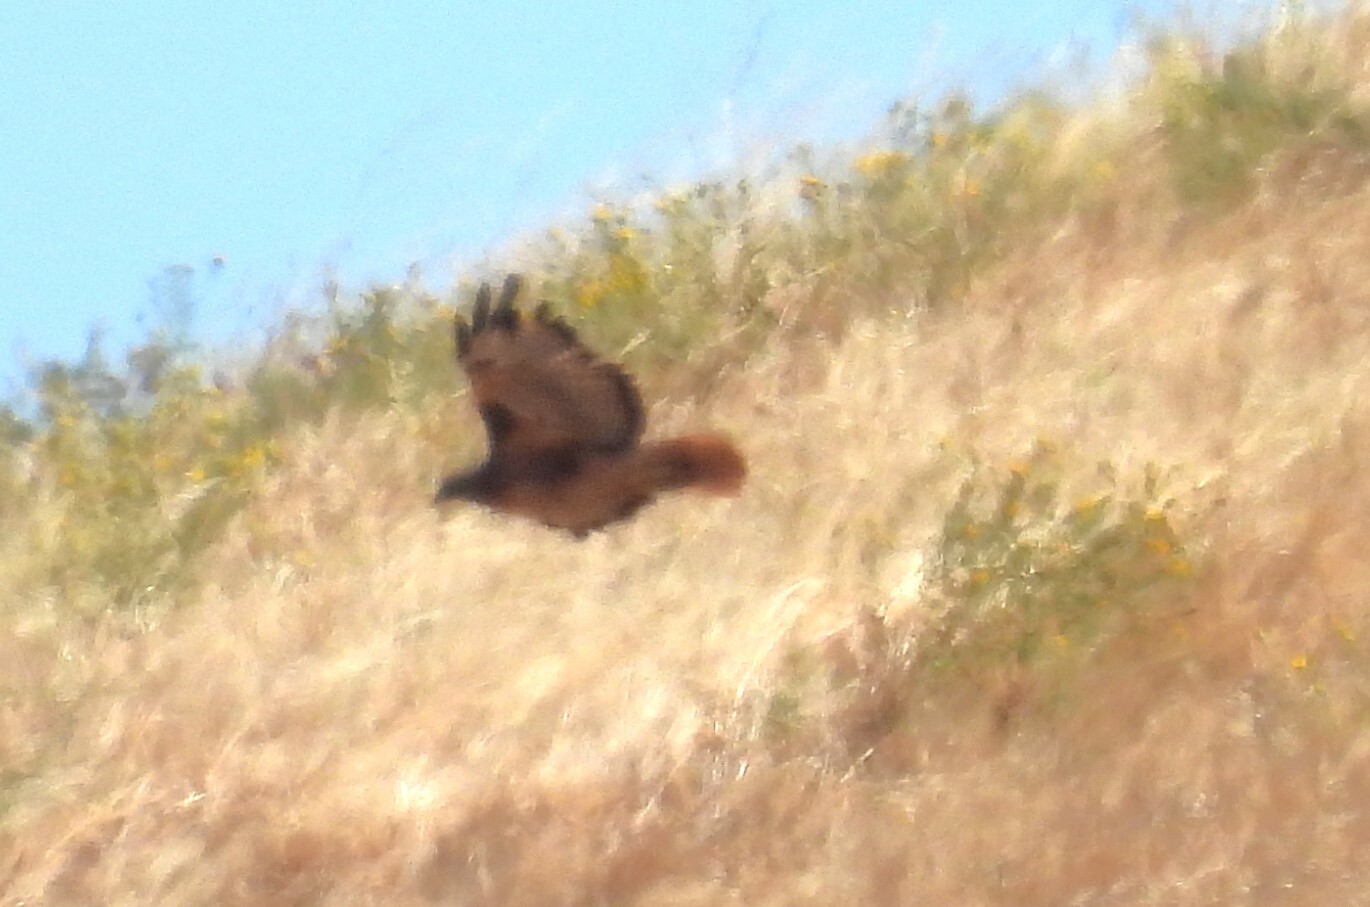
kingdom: Animalia
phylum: Chordata
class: Aves
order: Accipitriformes
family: Accipitridae
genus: Buteo
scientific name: Buteo jamaicensis
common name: Red-tailed hawk
